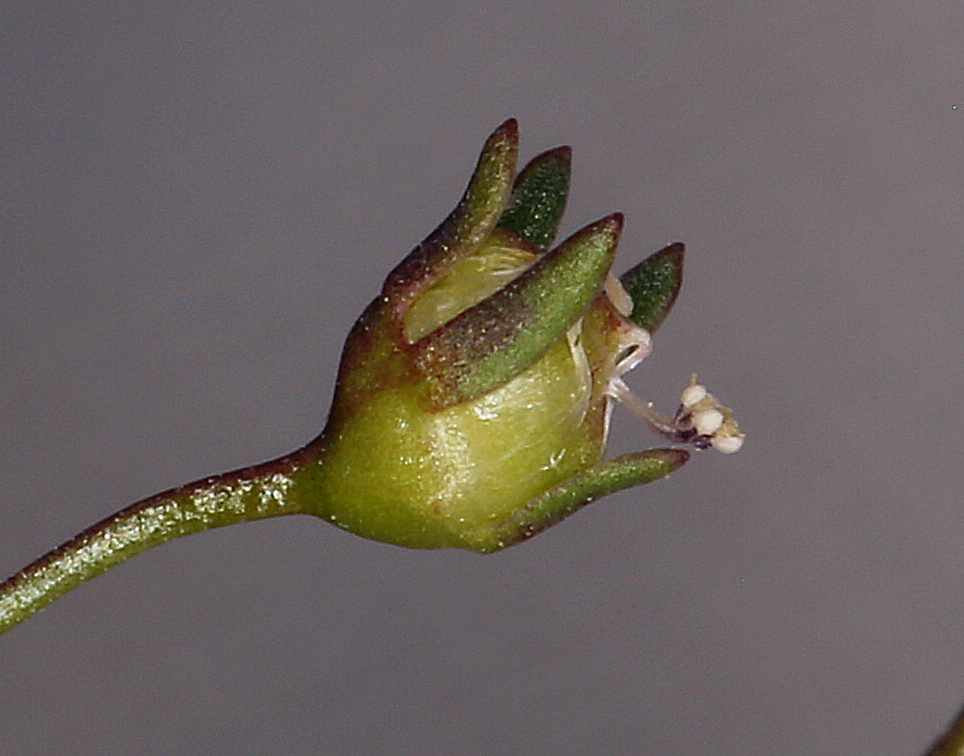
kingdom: Plantae
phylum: Tracheophyta
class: Magnoliopsida
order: Asterales
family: Campanulaceae
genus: Nemacladus
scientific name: Nemacladus orientalis
